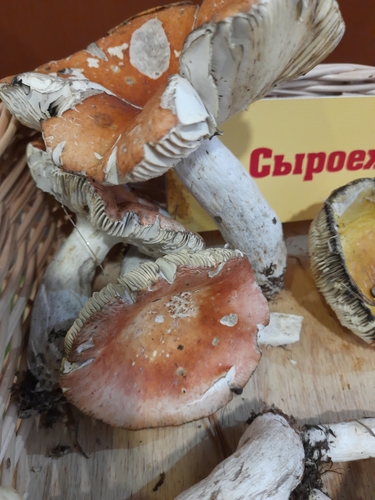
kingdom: Fungi
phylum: Basidiomycota
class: Agaricomycetes
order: Russulales
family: Russulaceae
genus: Russula
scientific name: Russula decolorans
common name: Copper brittlegill
